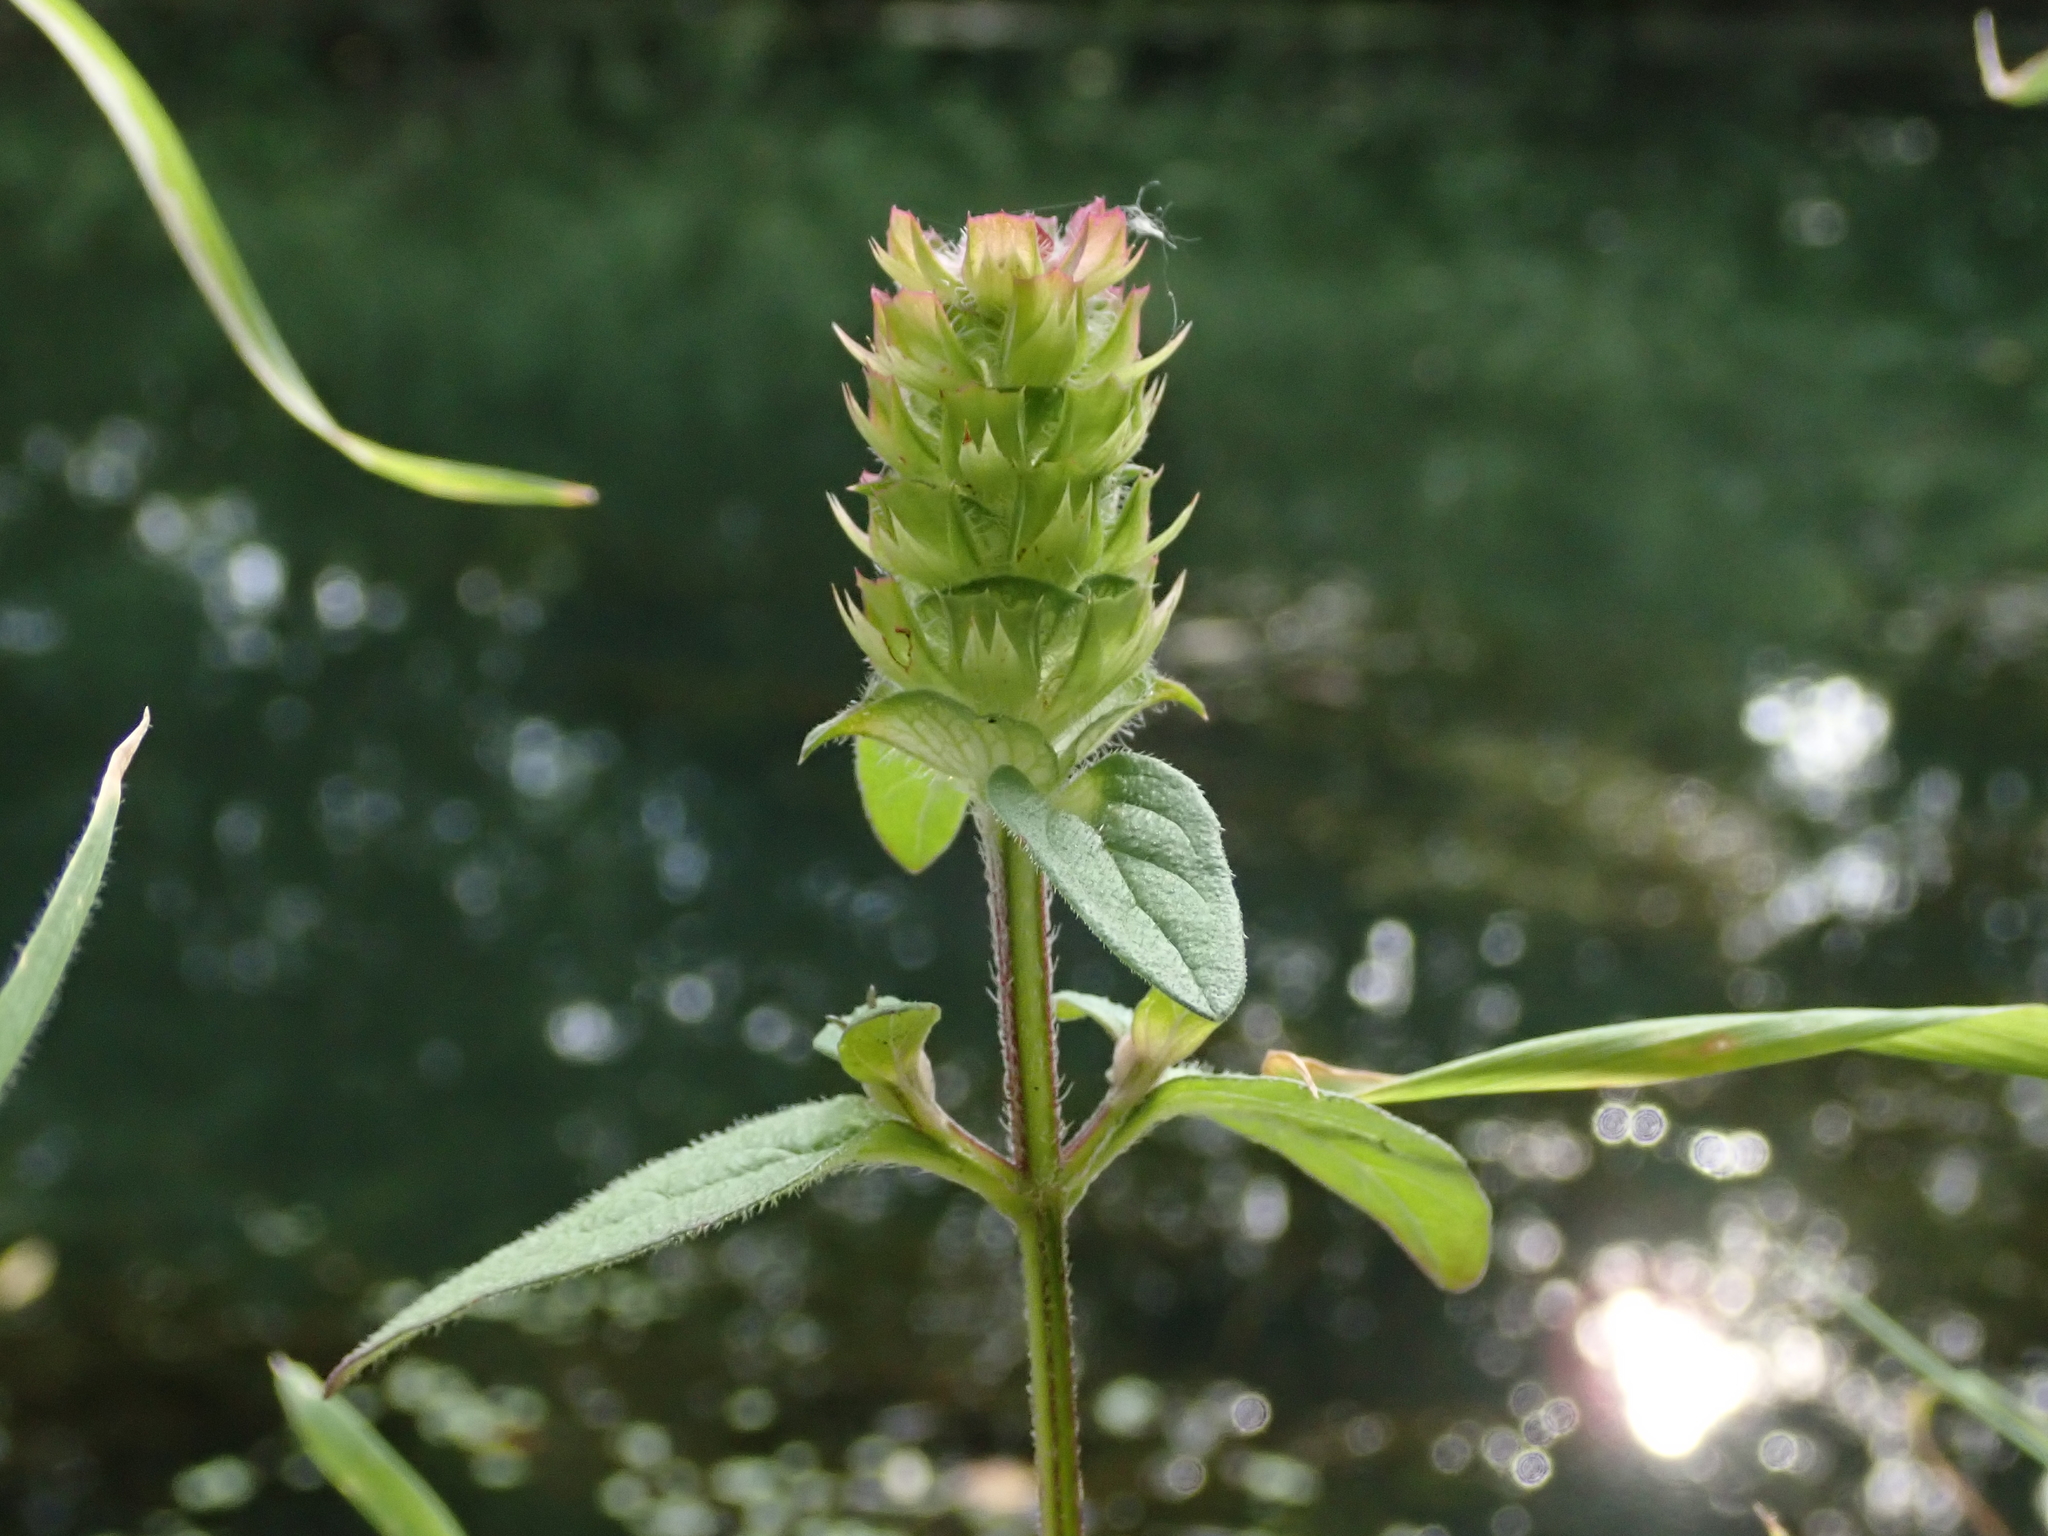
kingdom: Plantae
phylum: Tracheophyta
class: Magnoliopsida
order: Lamiales
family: Lamiaceae
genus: Prunella
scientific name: Prunella vulgaris
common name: Heal-all
